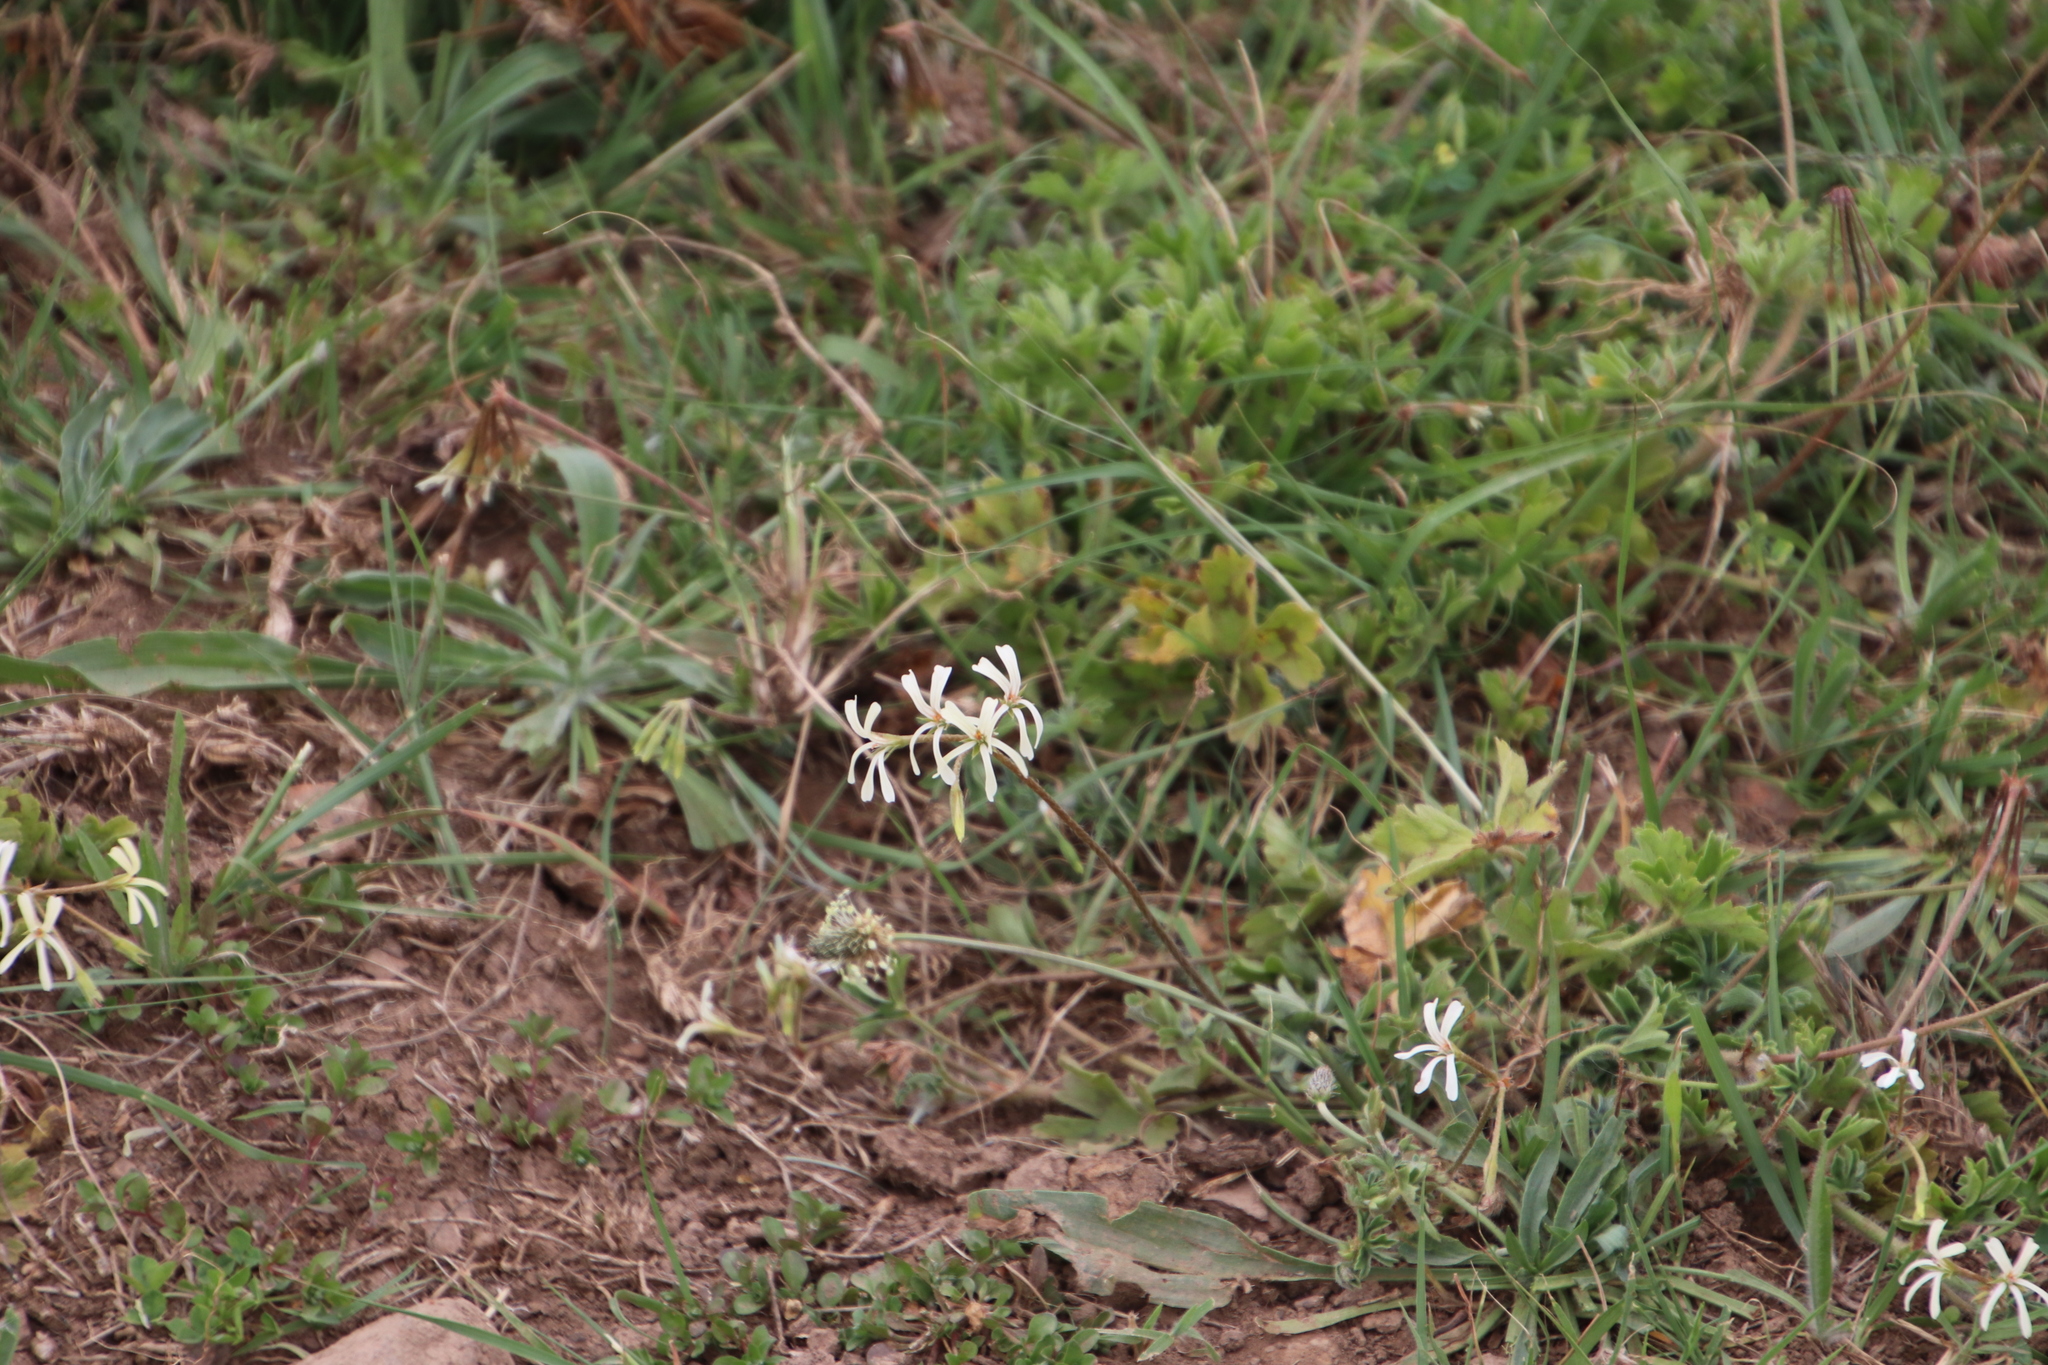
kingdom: Plantae
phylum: Tracheophyta
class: Magnoliopsida
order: Geraniales
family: Geraniaceae
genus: Pelargonium
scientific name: Pelargonium alchemilloides
